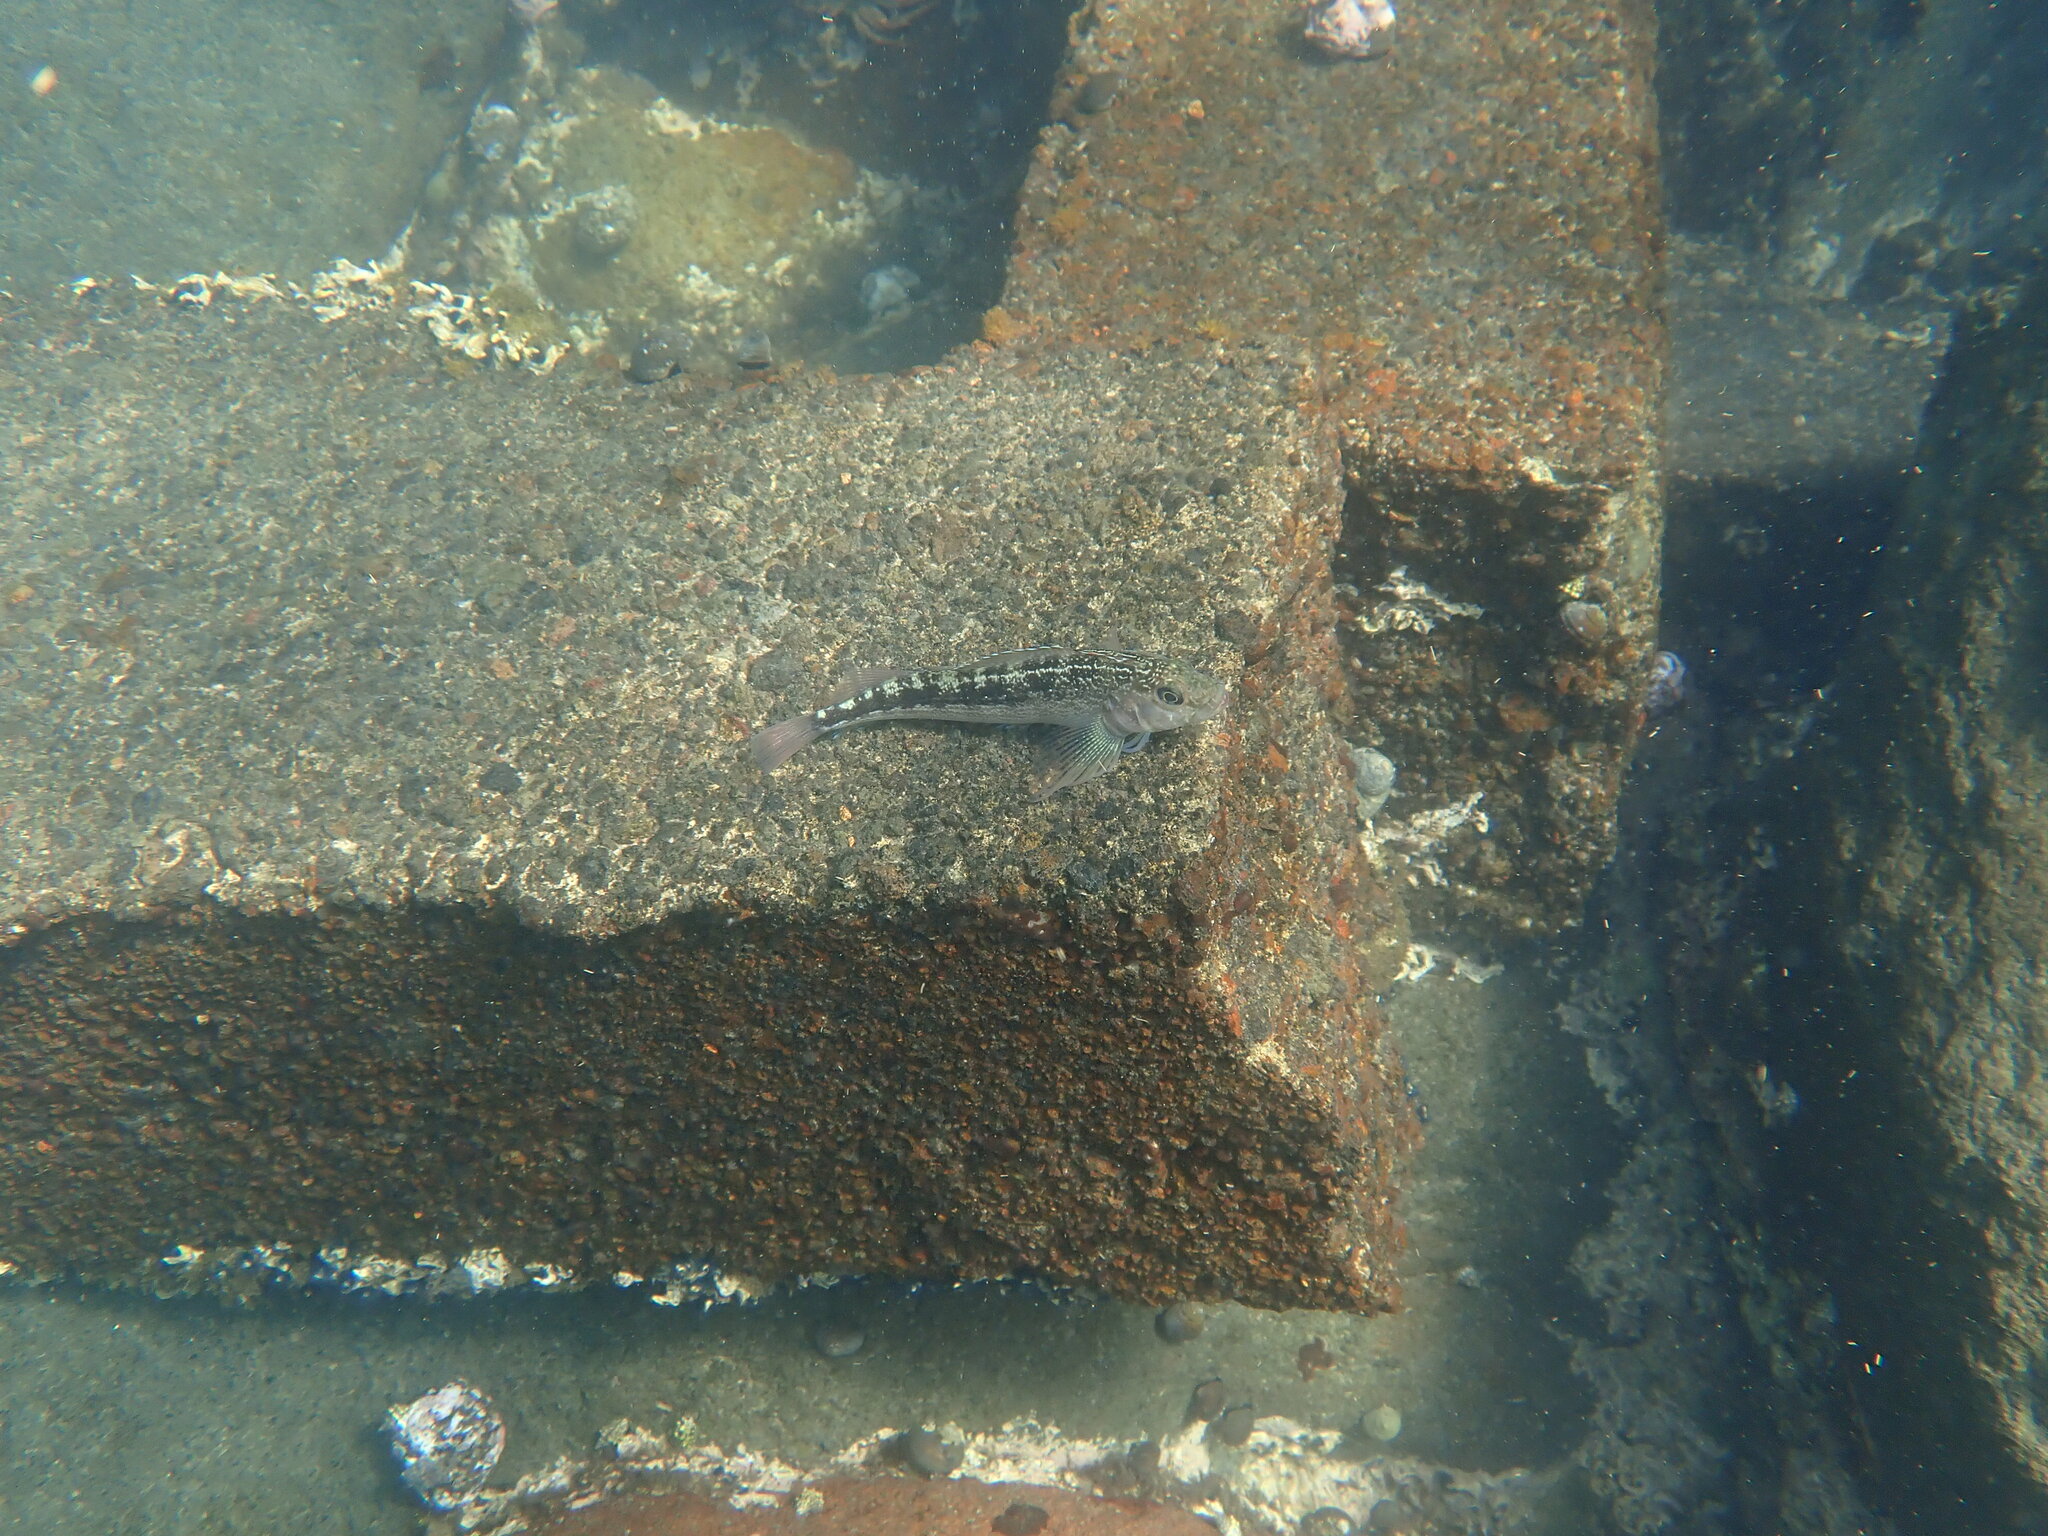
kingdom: Animalia
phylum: Chordata
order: Perciformes
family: Tripterygiidae
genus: Forsterygion
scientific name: Forsterygion varium
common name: Variable triplefin
